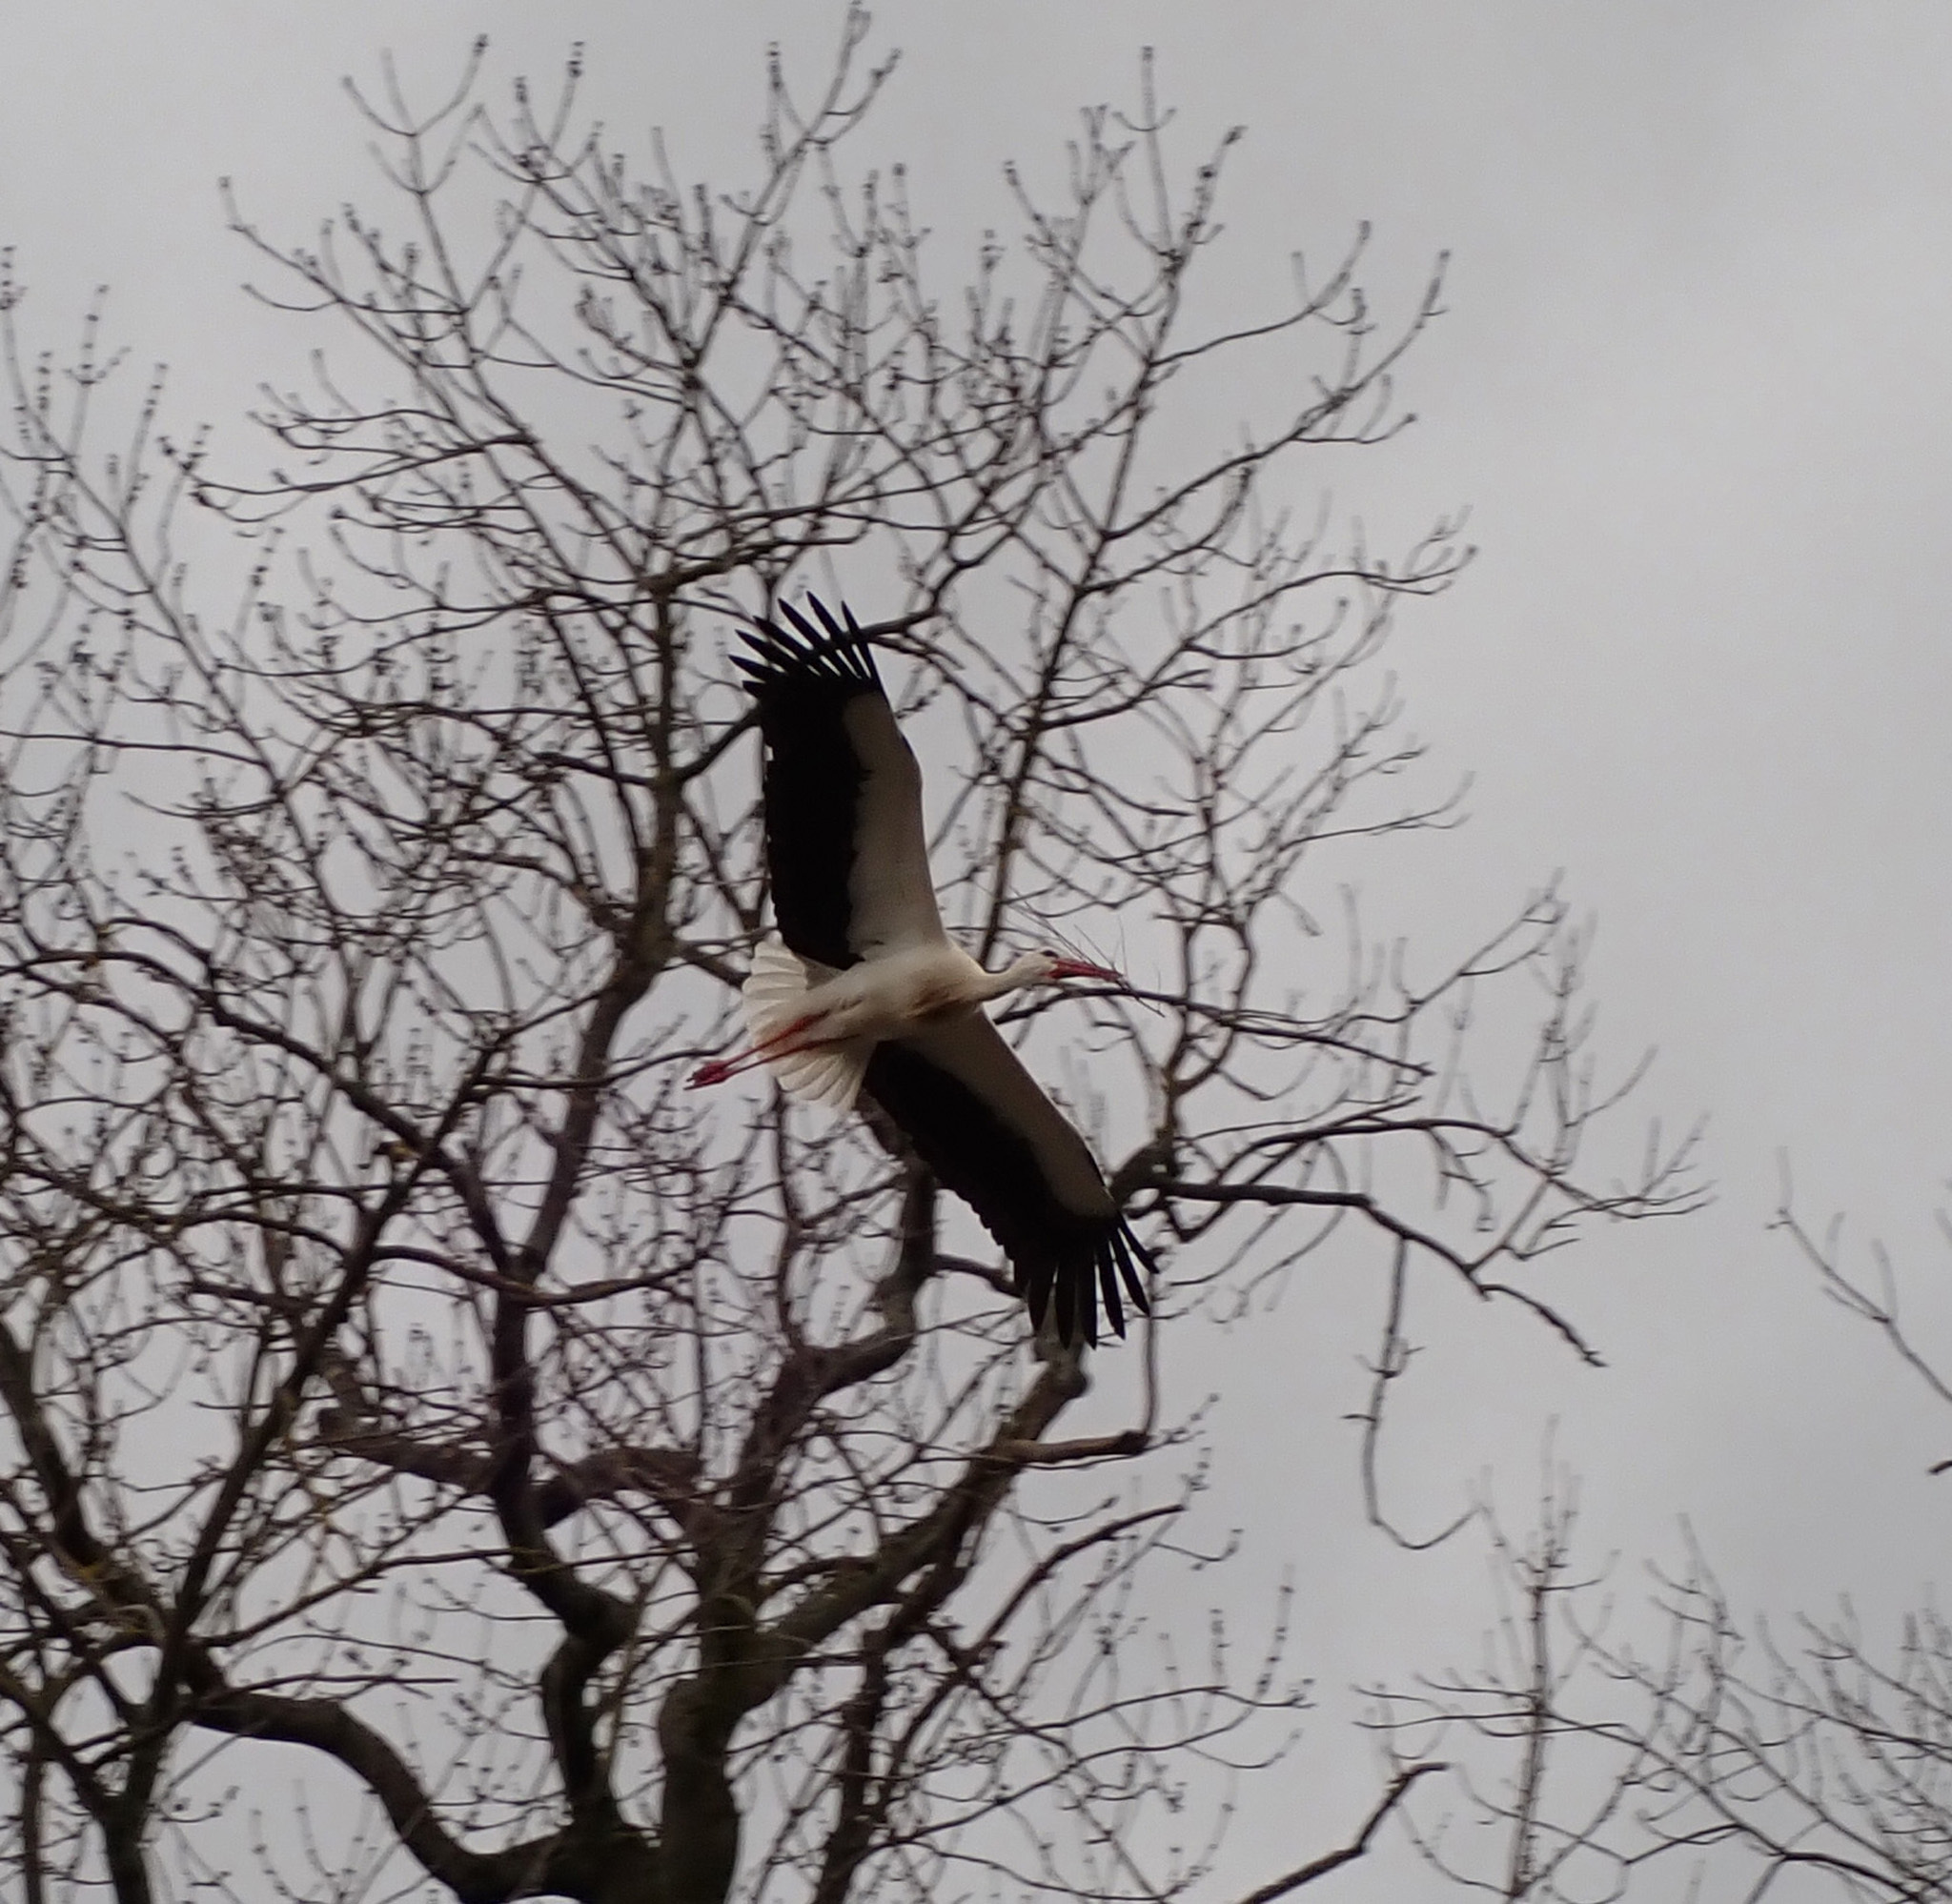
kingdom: Animalia
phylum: Chordata
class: Aves
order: Ciconiiformes
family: Ciconiidae
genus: Ciconia
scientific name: Ciconia ciconia
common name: White stork
